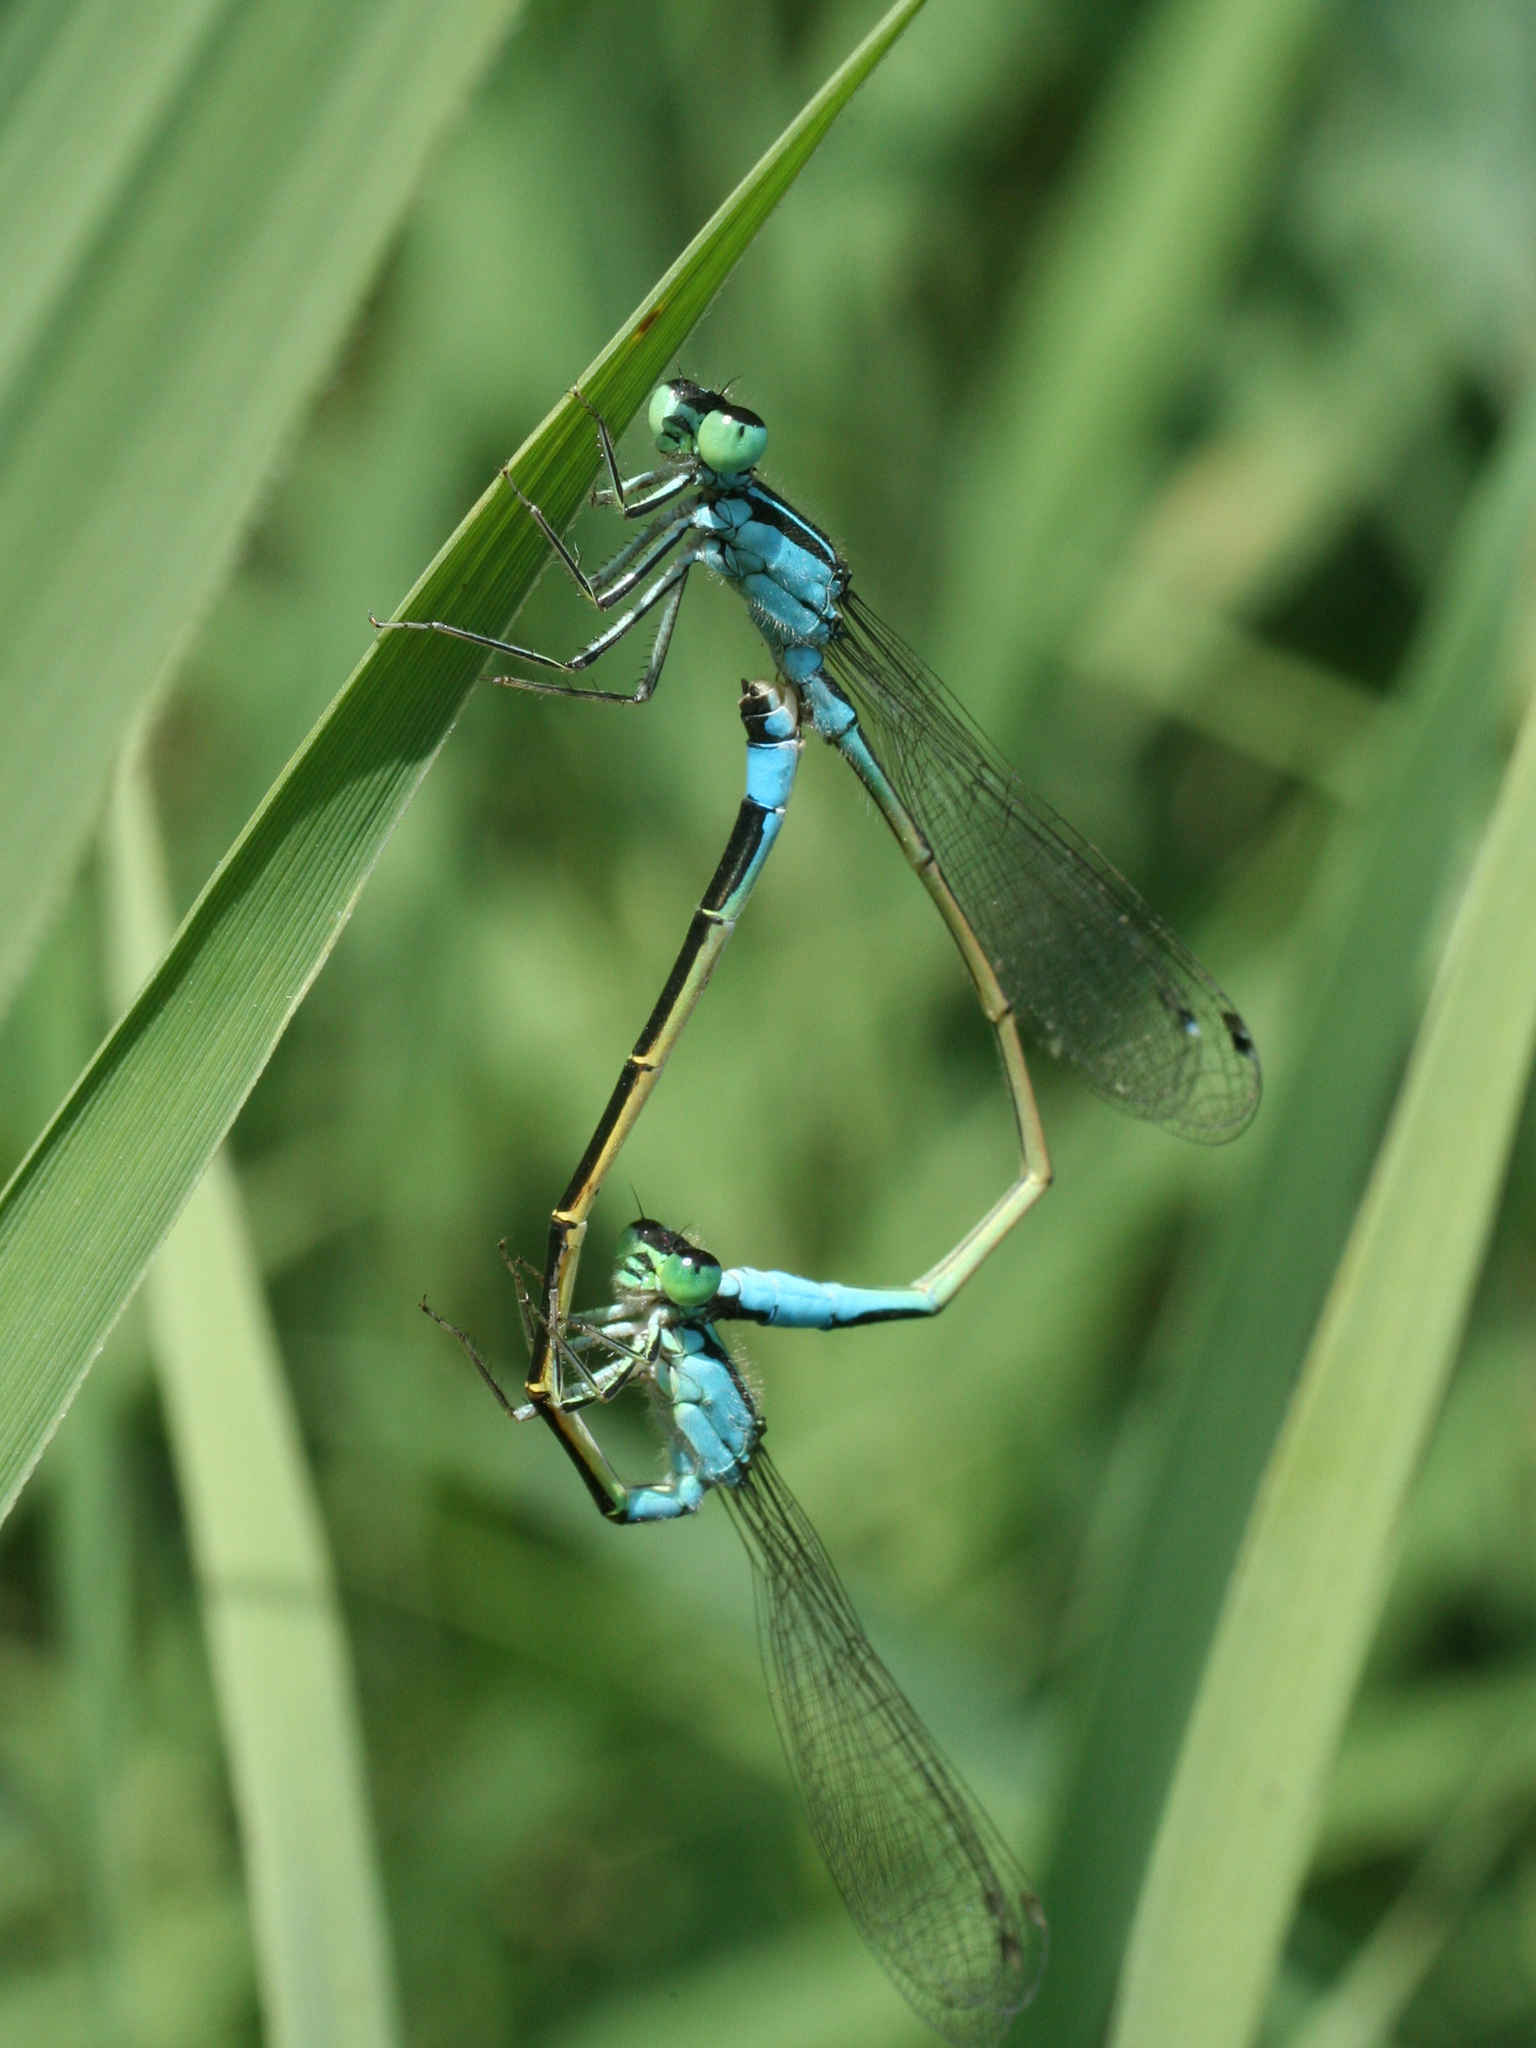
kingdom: Animalia
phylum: Arthropoda
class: Insecta
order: Odonata
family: Coenagrionidae
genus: Ischnura
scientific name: Ischnura elegans
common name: Blue-tailed damselfly
